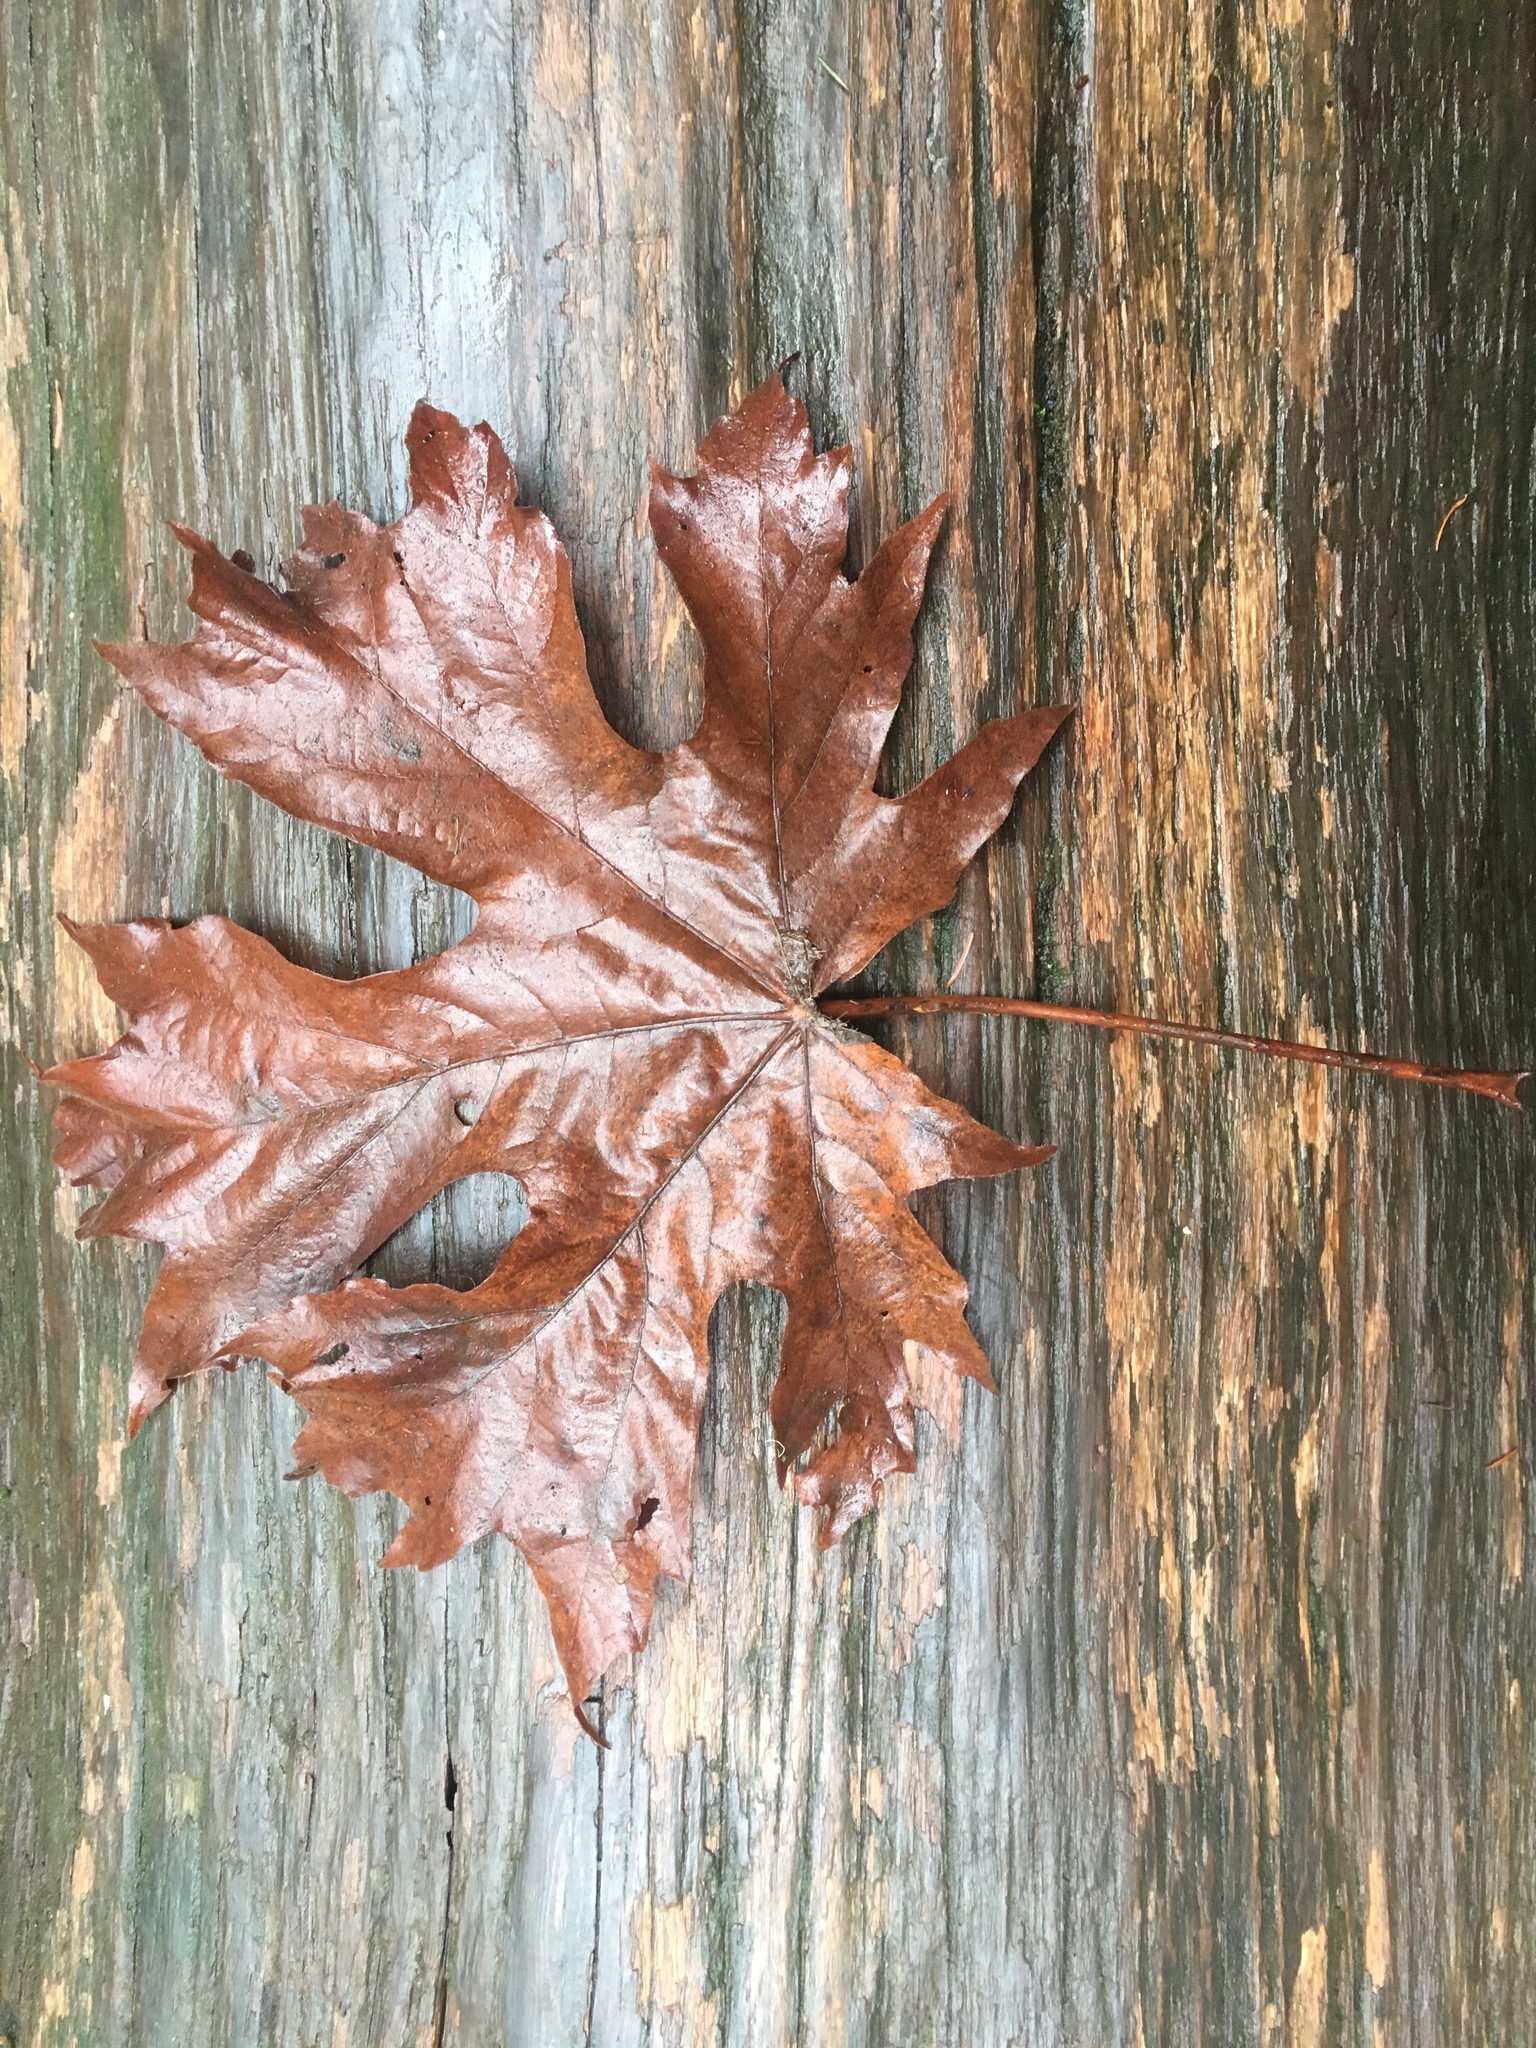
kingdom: Plantae
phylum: Tracheophyta
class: Magnoliopsida
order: Sapindales
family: Sapindaceae
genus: Acer
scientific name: Acer macrophyllum
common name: Oregon maple
